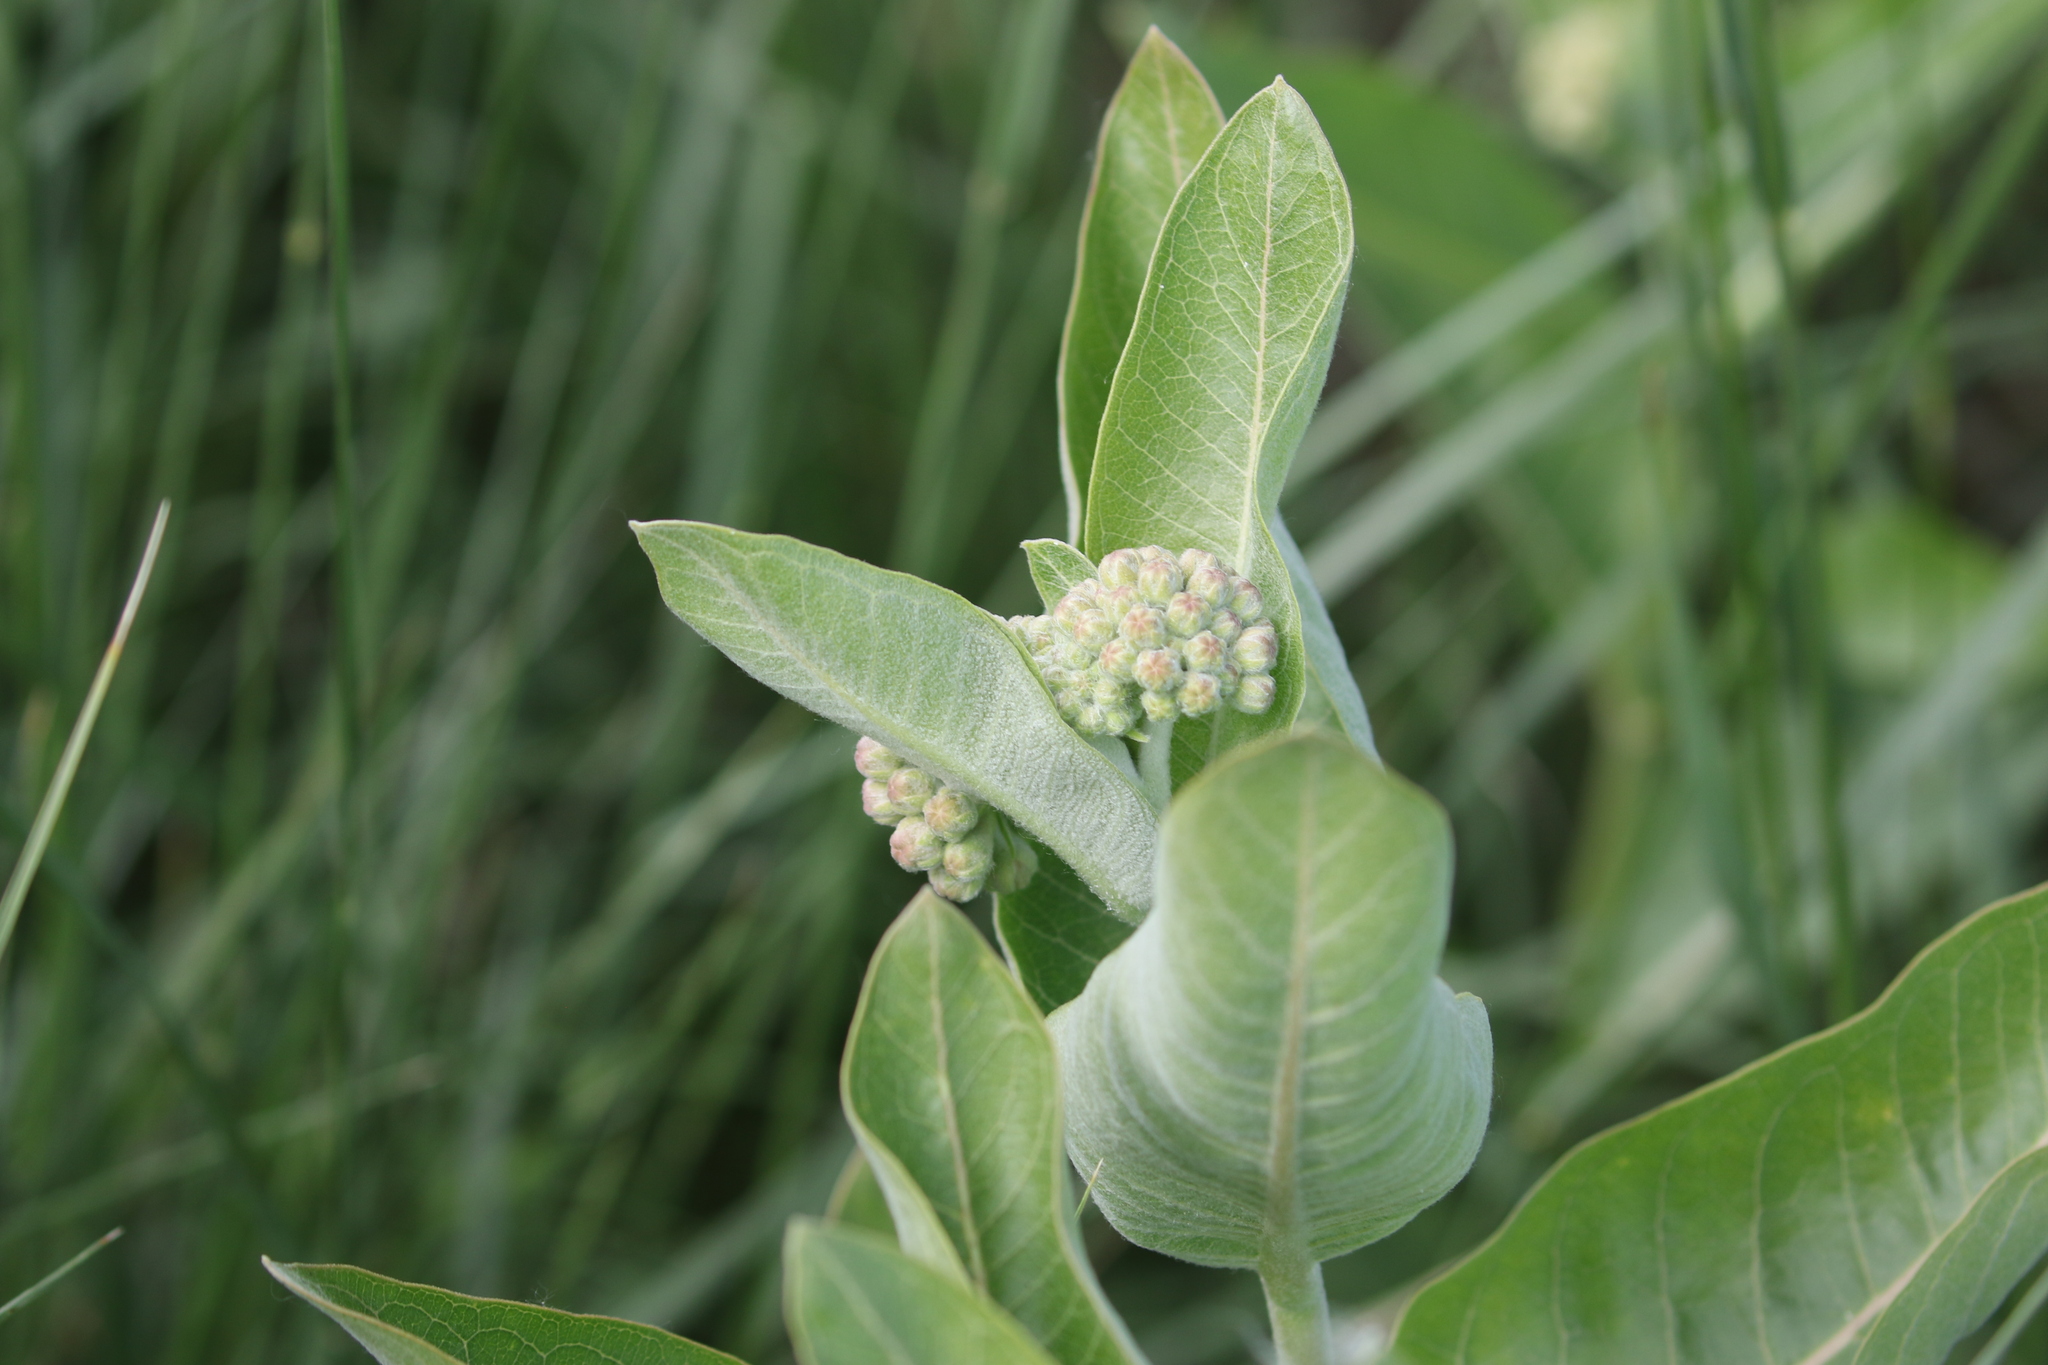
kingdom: Plantae
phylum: Tracheophyta
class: Magnoliopsida
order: Gentianales
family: Apocynaceae
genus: Asclepias
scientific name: Asclepias speciosa
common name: Showy milkweed
